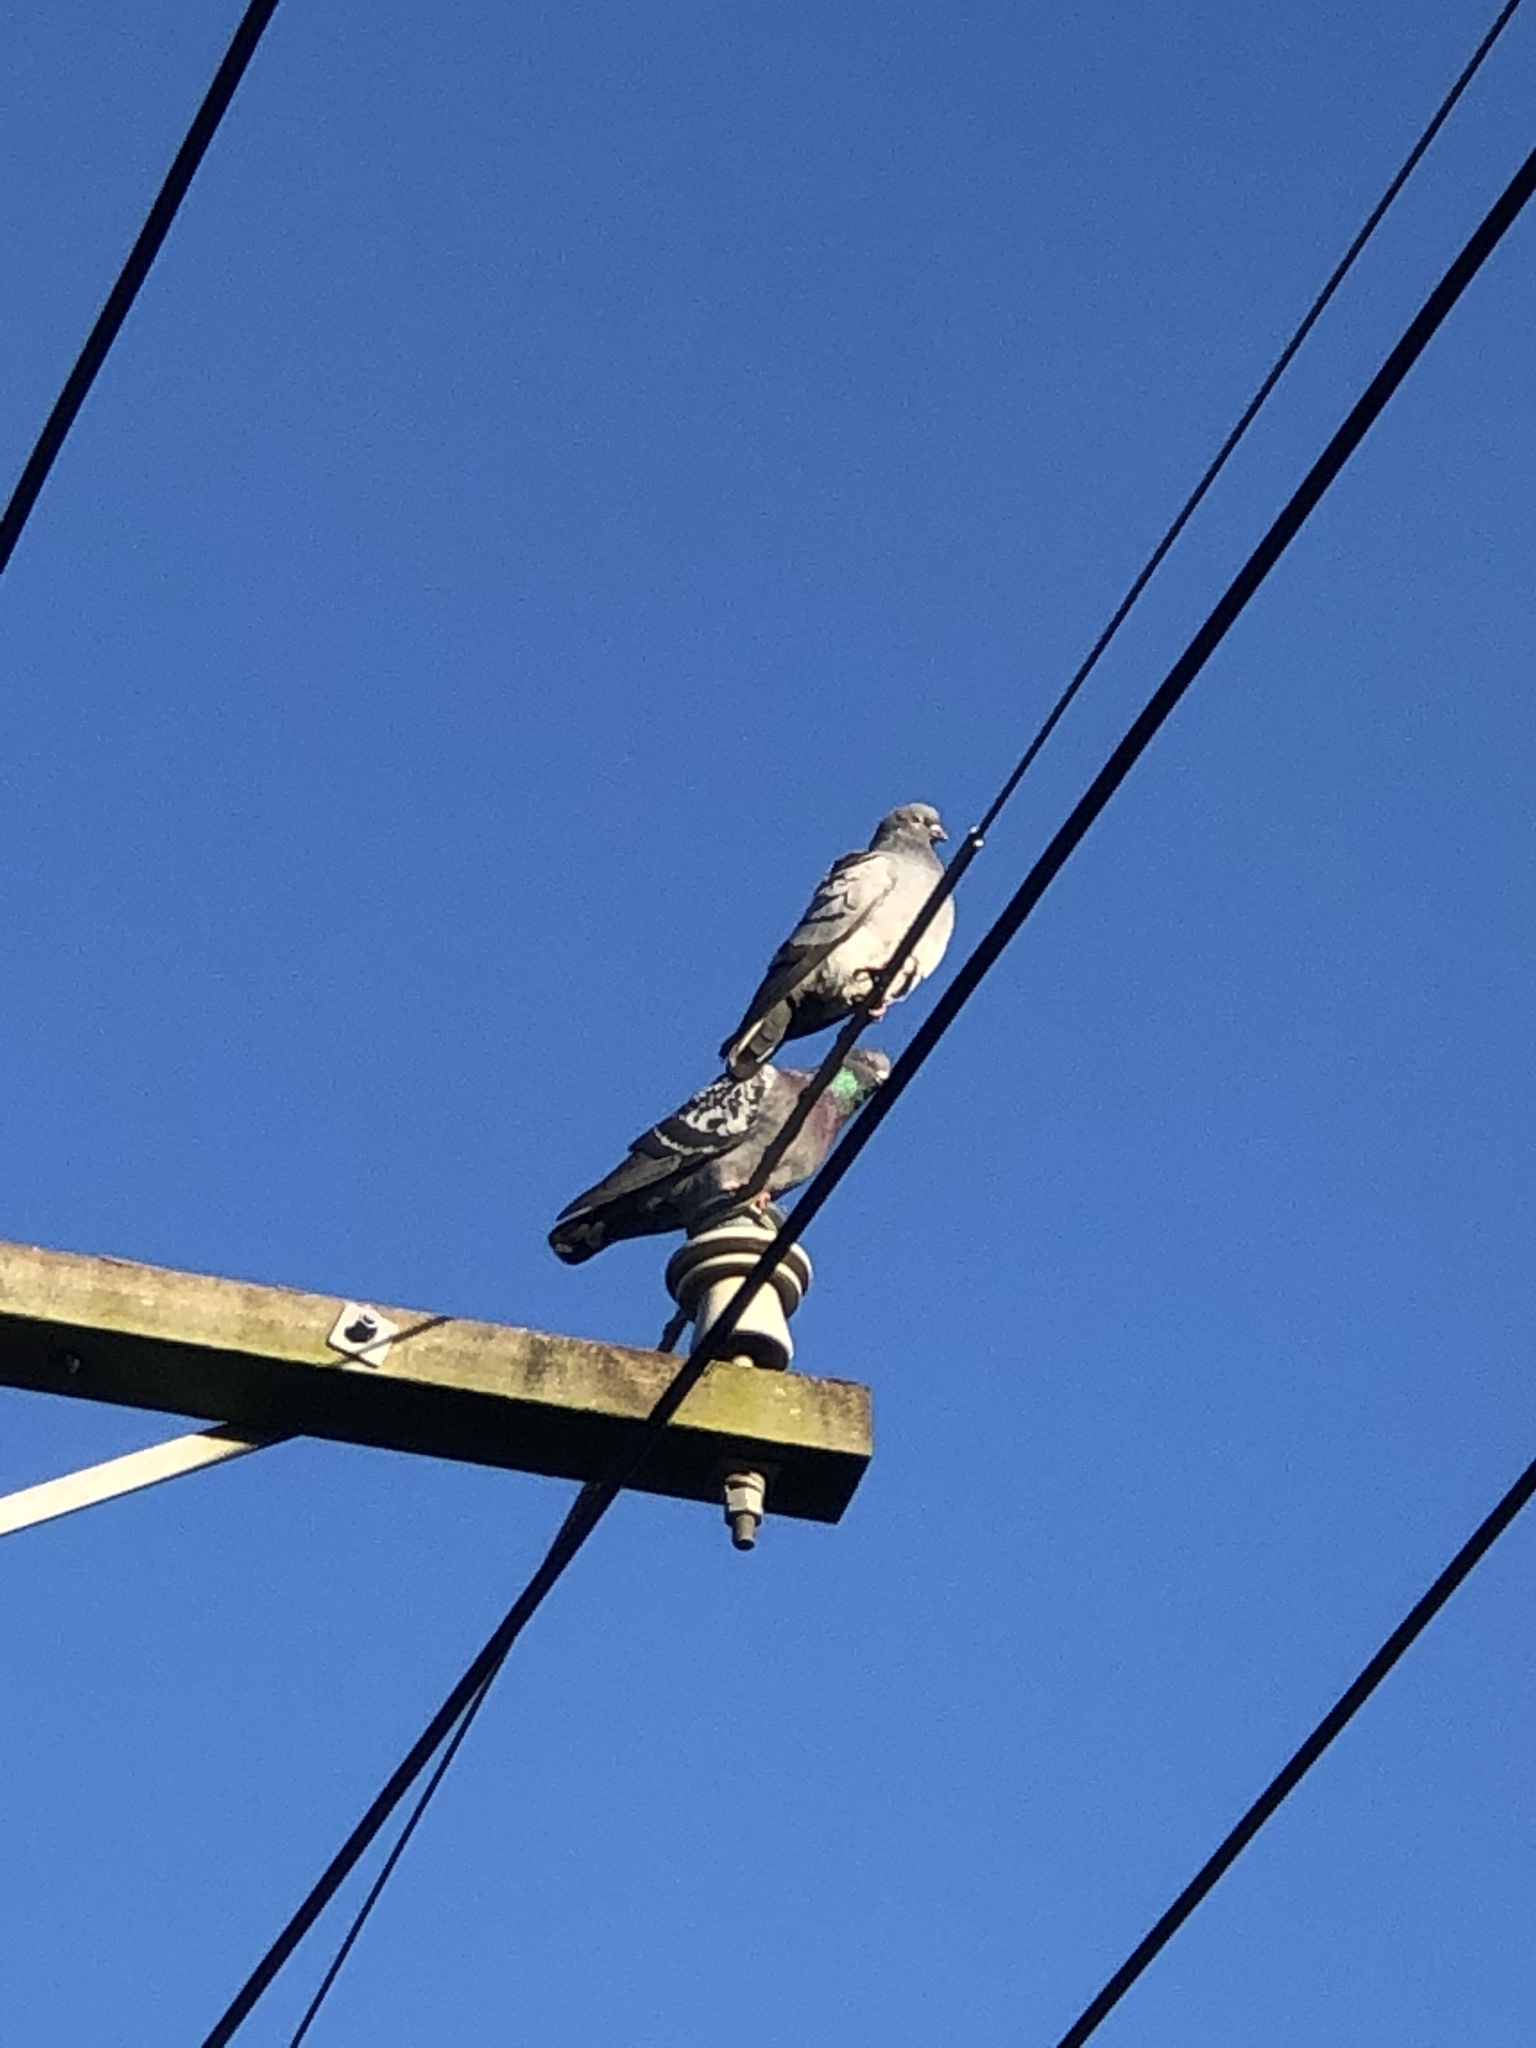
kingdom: Animalia
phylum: Chordata
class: Aves
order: Columbiformes
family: Columbidae
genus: Columba
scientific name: Columba livia
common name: Rock pigeon
